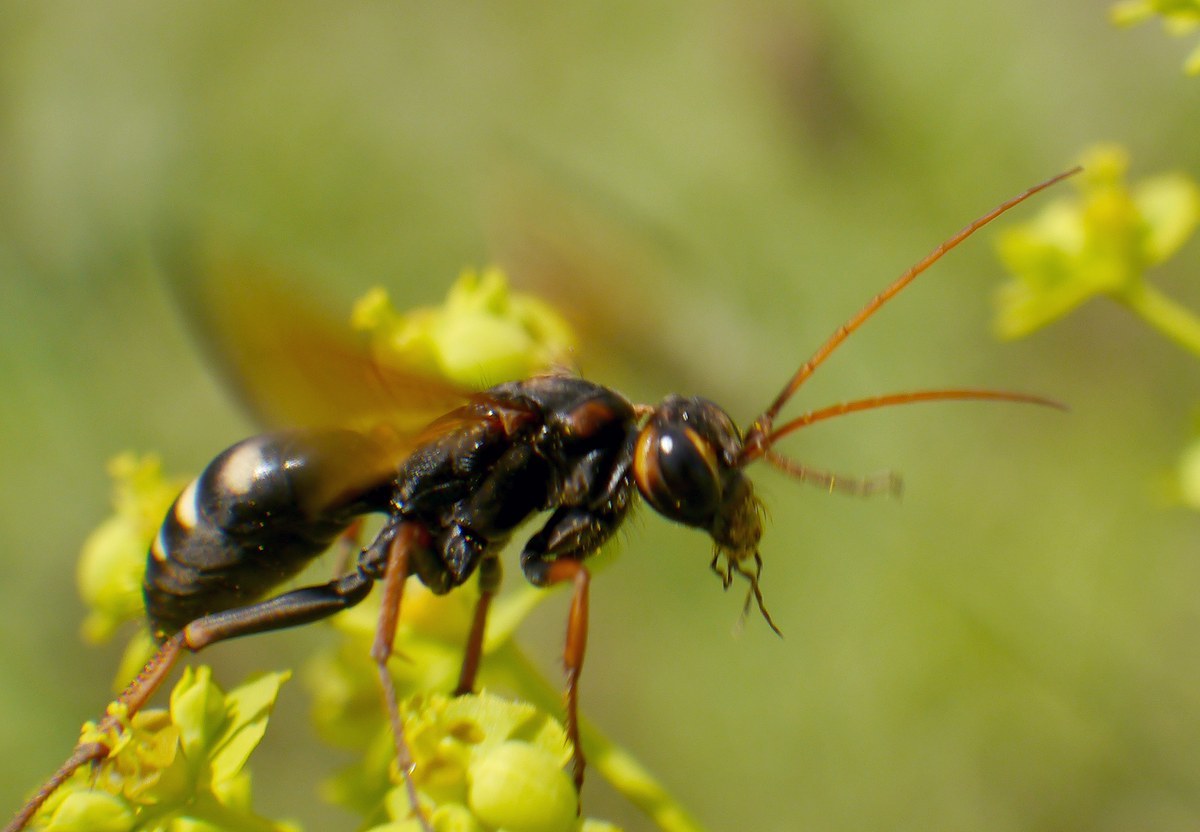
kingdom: Animalia
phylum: Arthropoda
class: Insecta
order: Hymenoptera
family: Pompilidae
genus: Cryptocheilus
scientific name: Cryptocheilus octomaculatus
